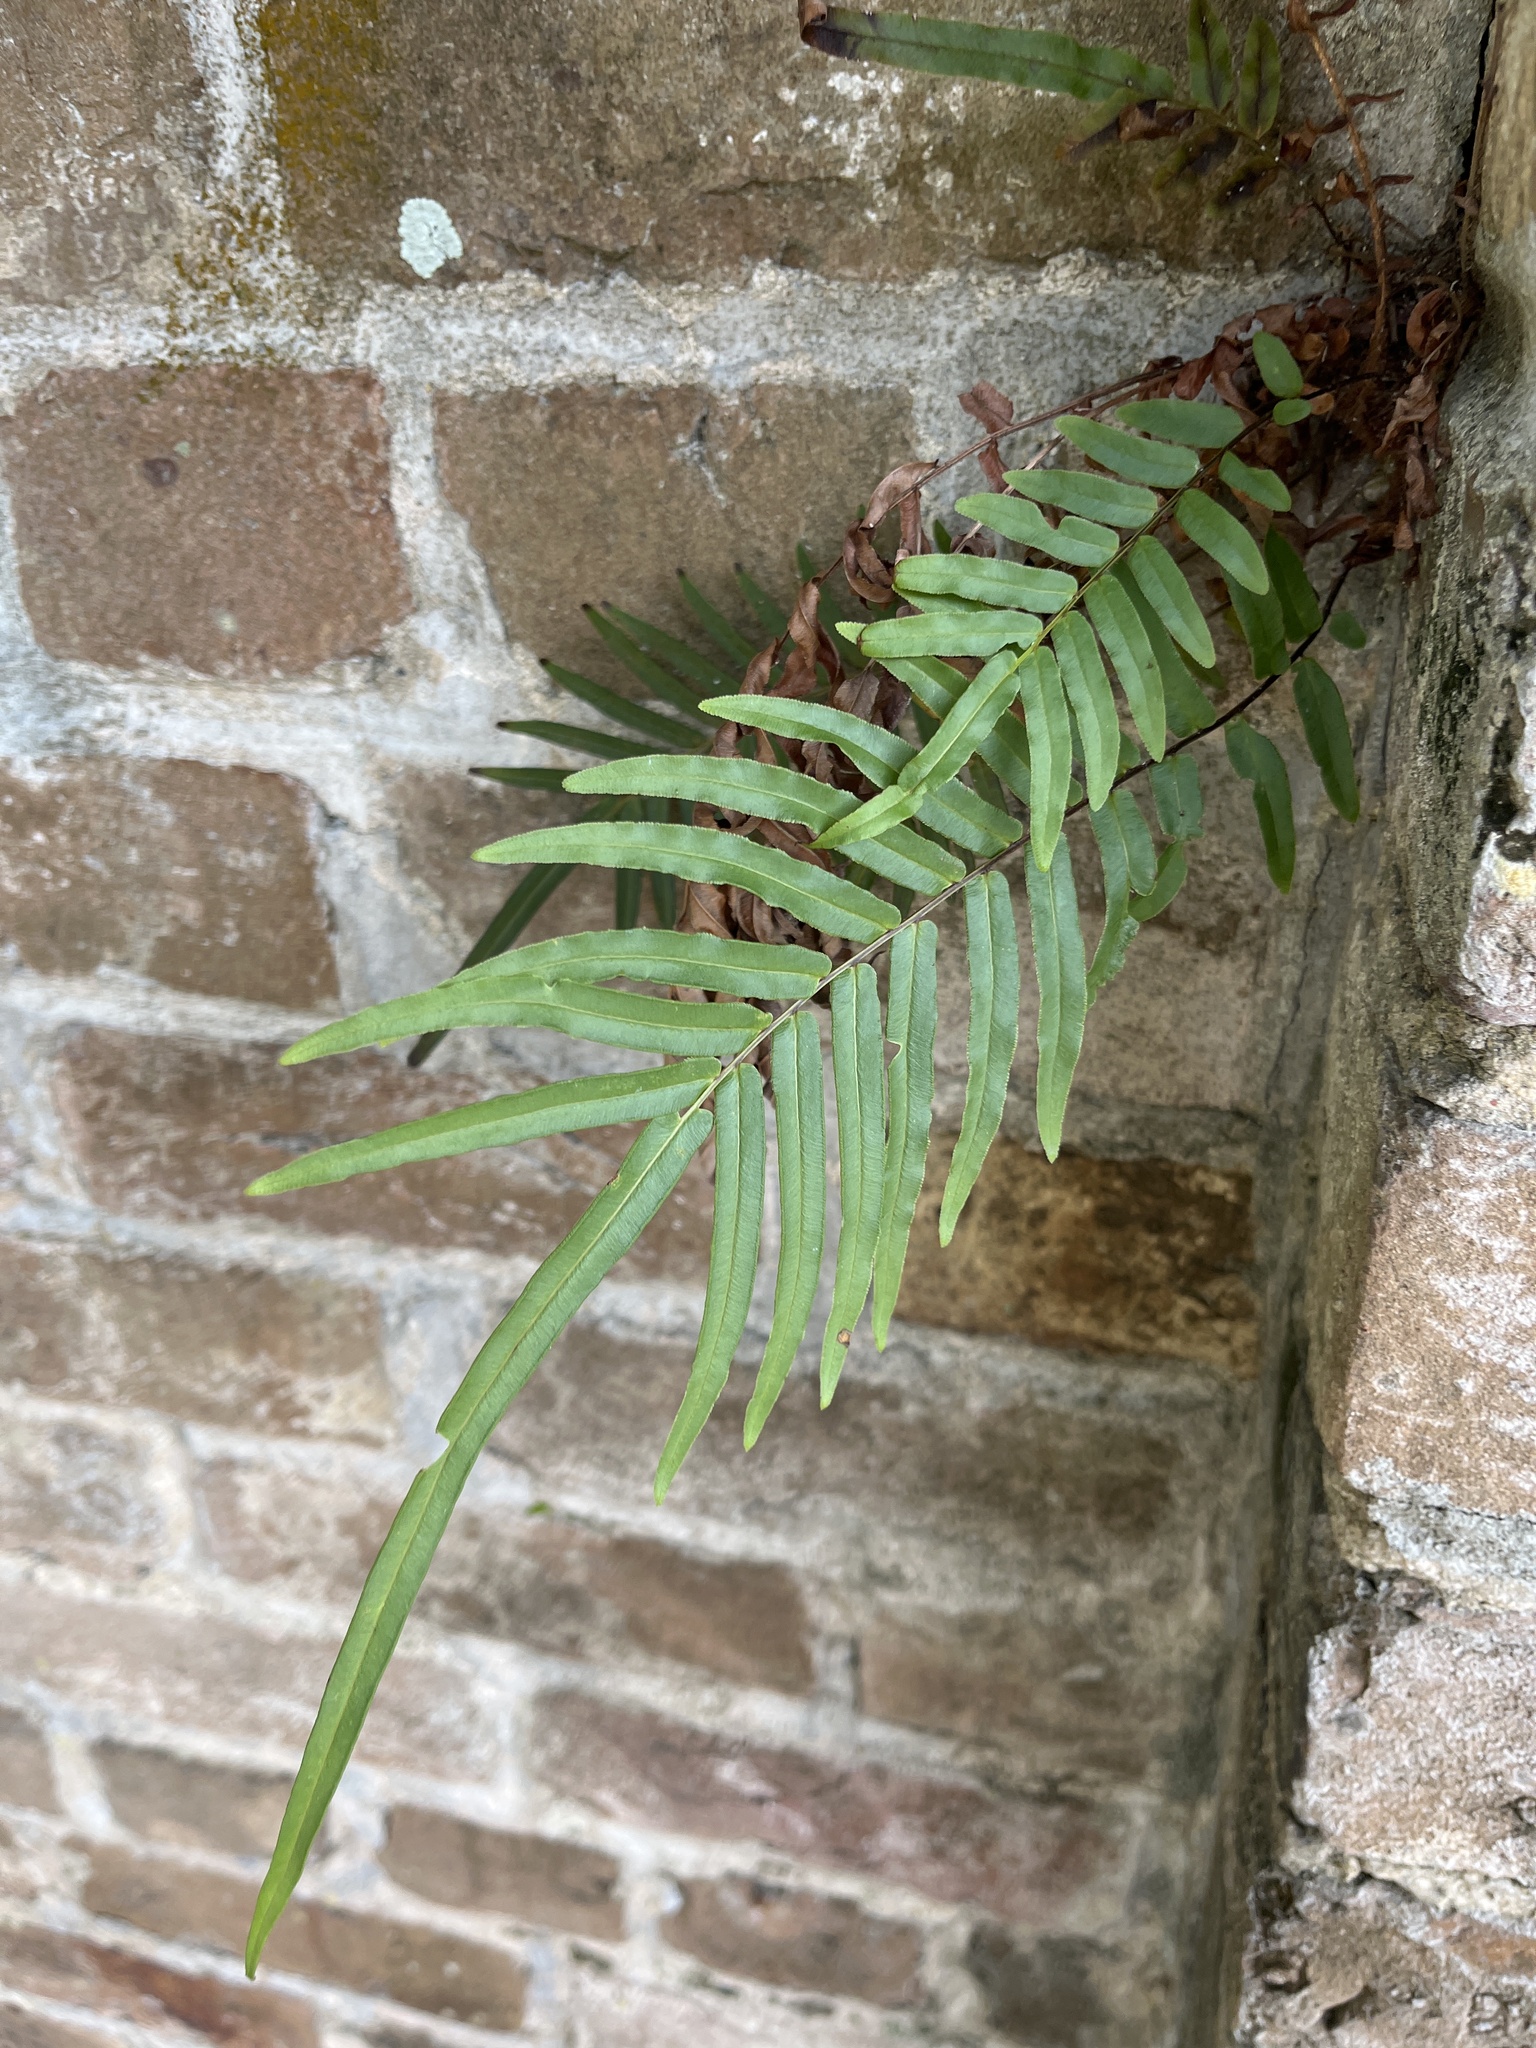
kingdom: Plantae
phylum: Tracheophyta
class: Polypodiopsida
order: Polypodiales
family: Pteridaceae
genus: Pteris
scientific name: Pteris vittata
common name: Ladder brake
